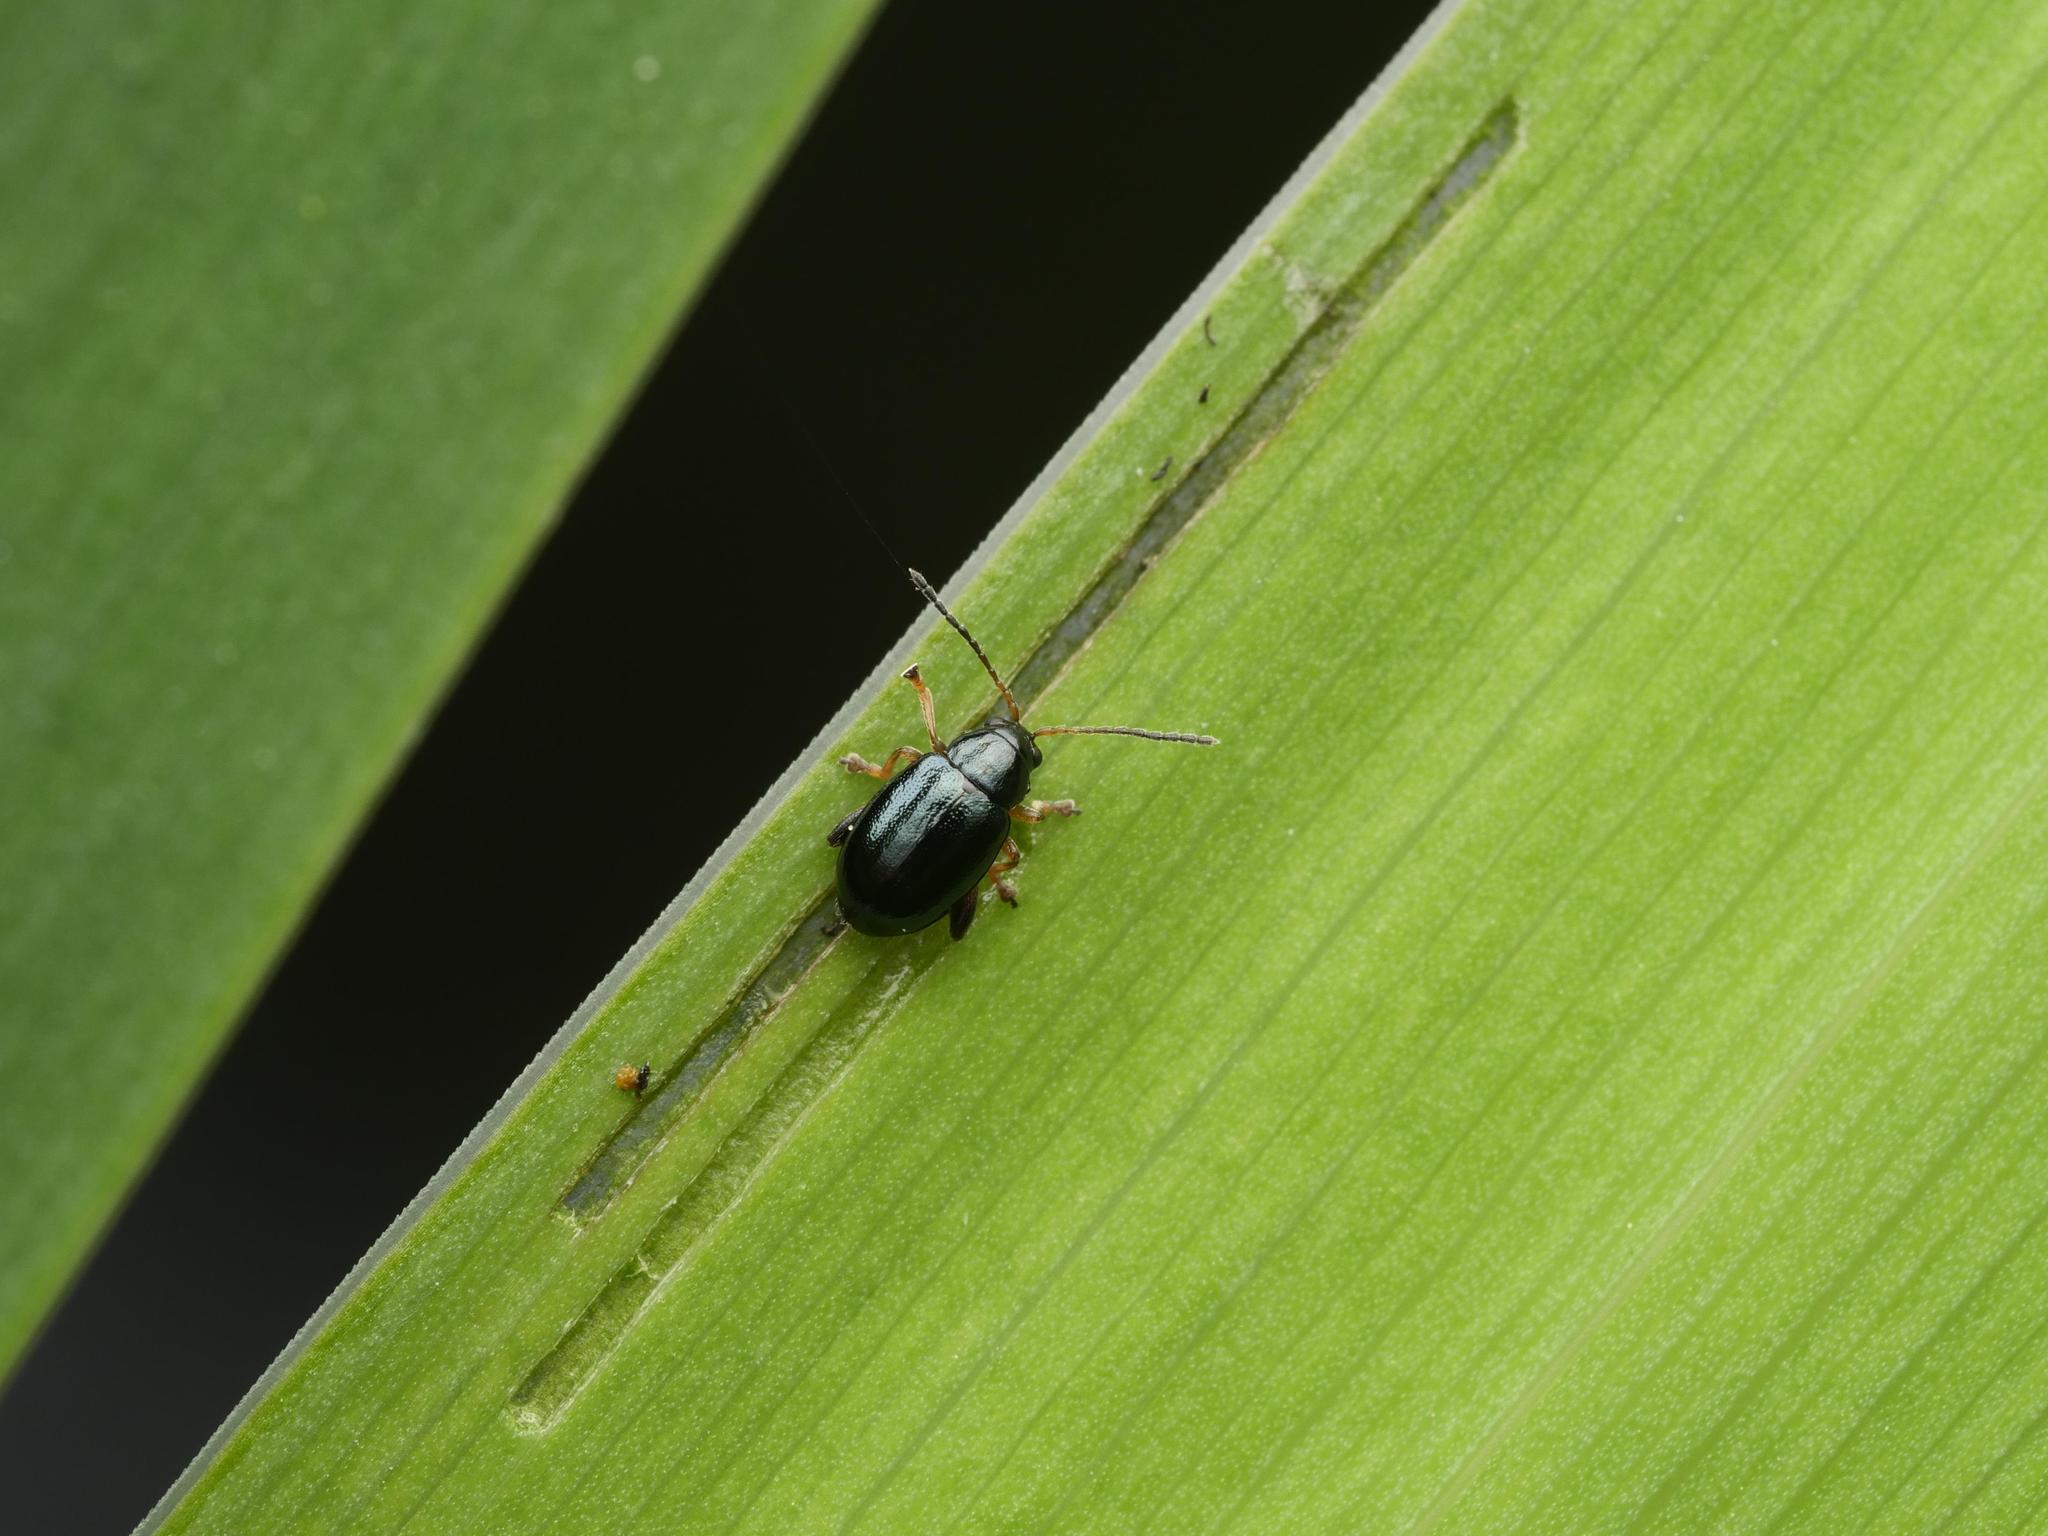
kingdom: Animalia
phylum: Arthropoda
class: Insecta
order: Coleoptera
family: Chrysomelidae
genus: Aphthona
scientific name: Aphthona nonstriata
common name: Iris flea beetle
